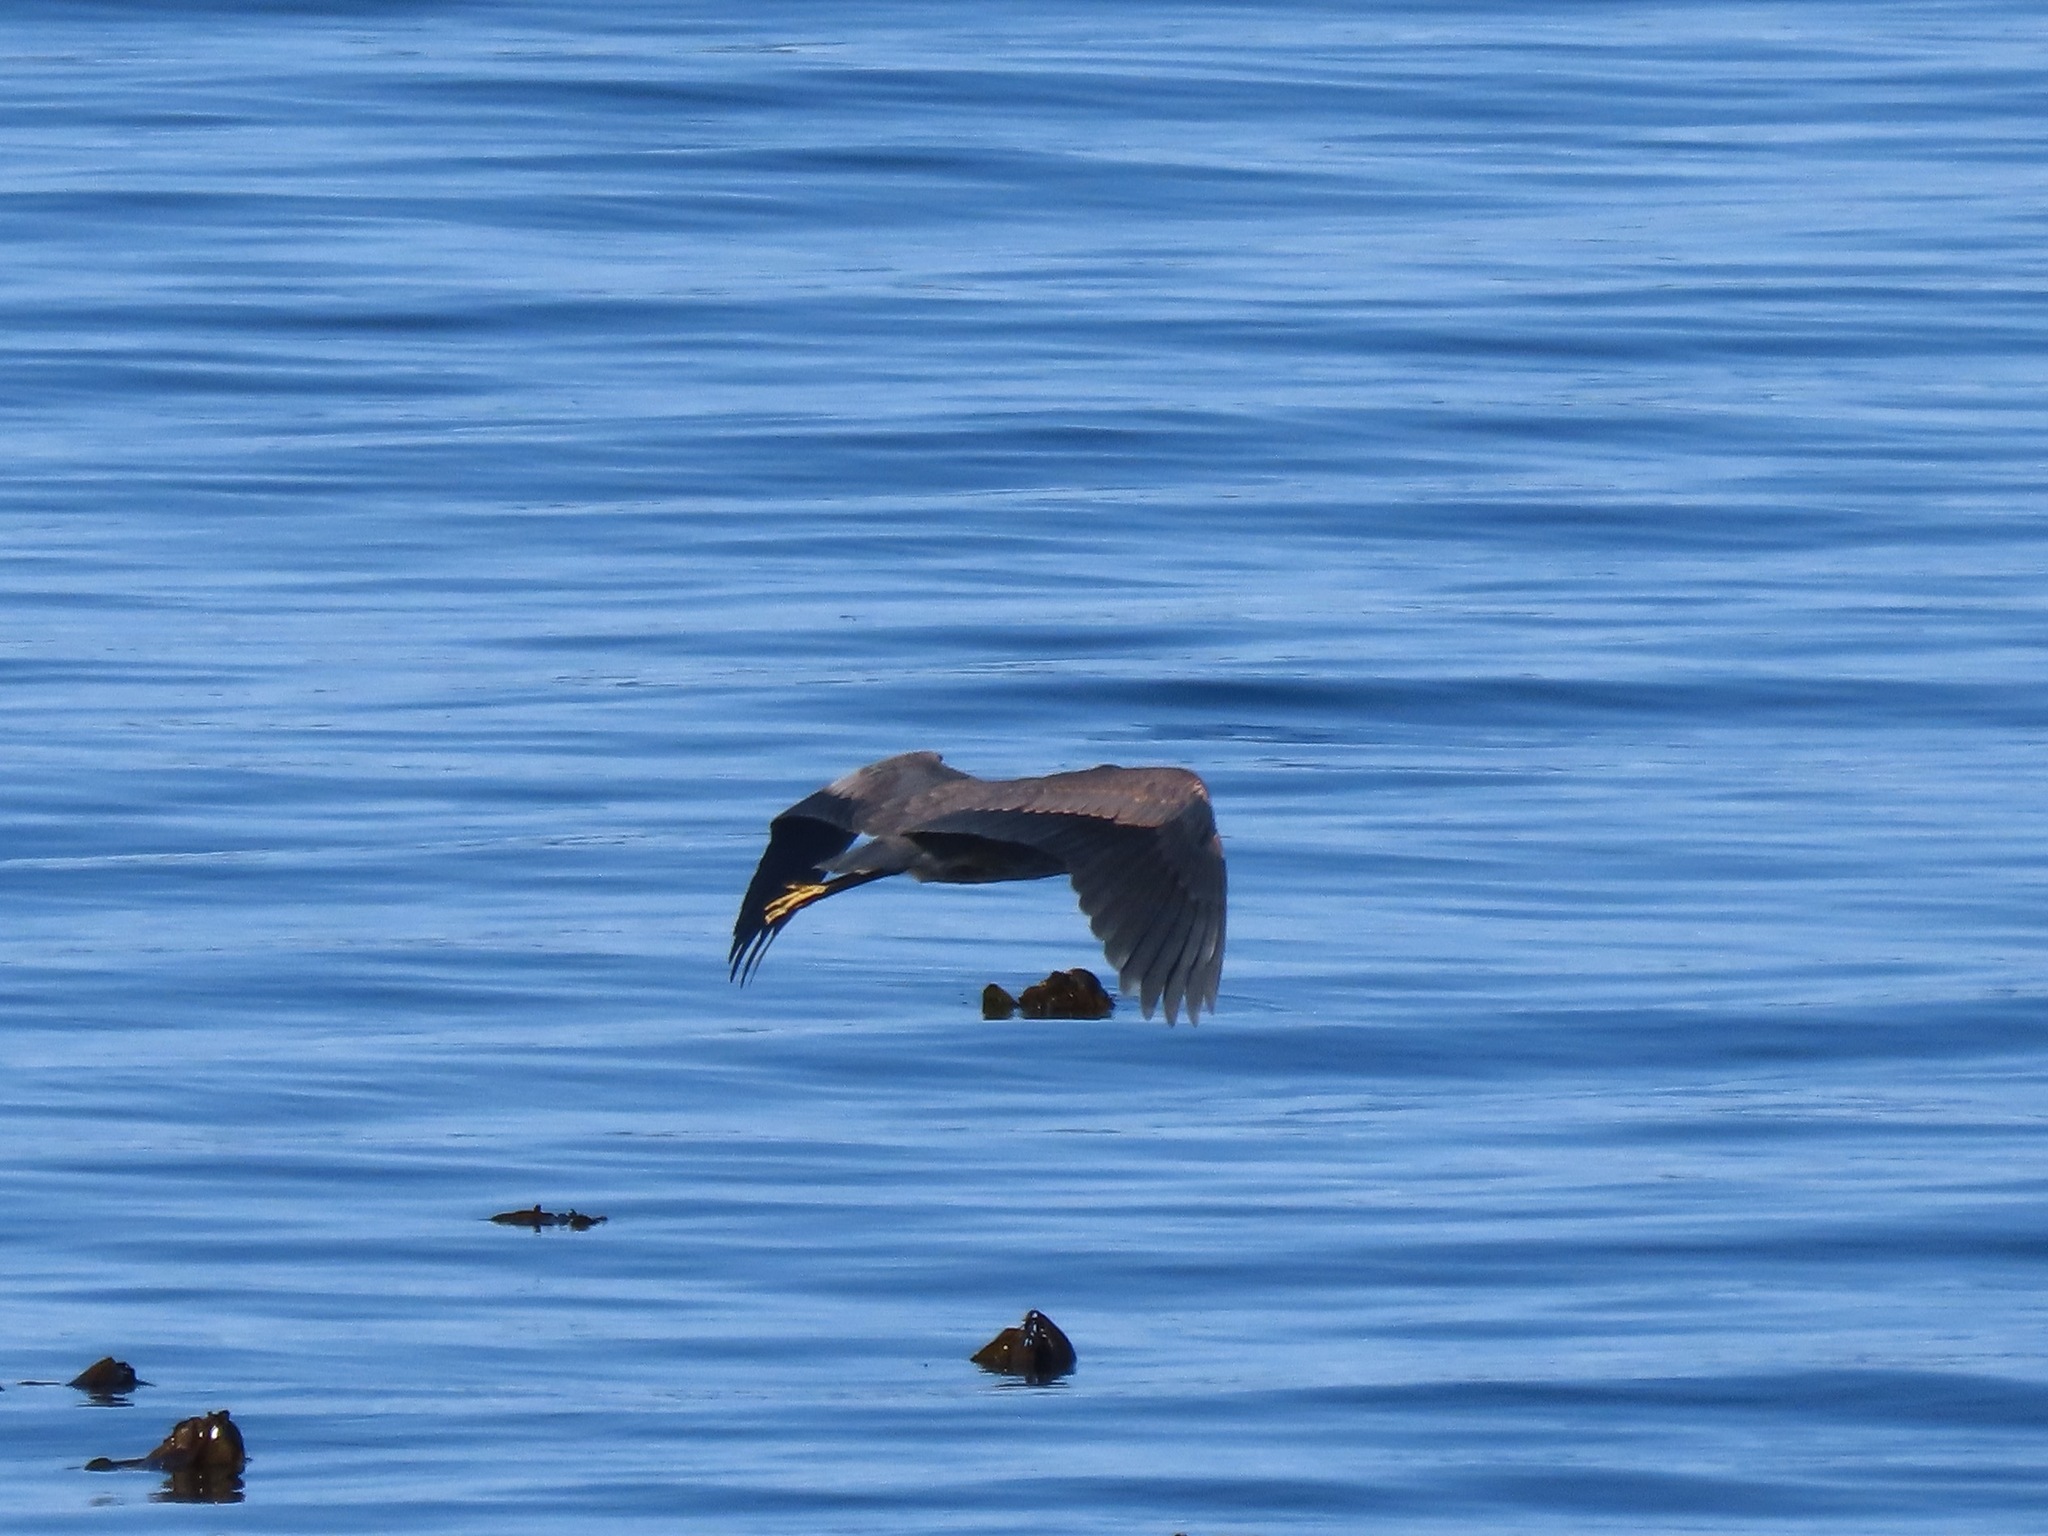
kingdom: Animalia
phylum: Chordata
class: Aves
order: Pelecaniformes
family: Ardeidae
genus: Ardea
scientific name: Ardea herodias
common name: Great blue heron
